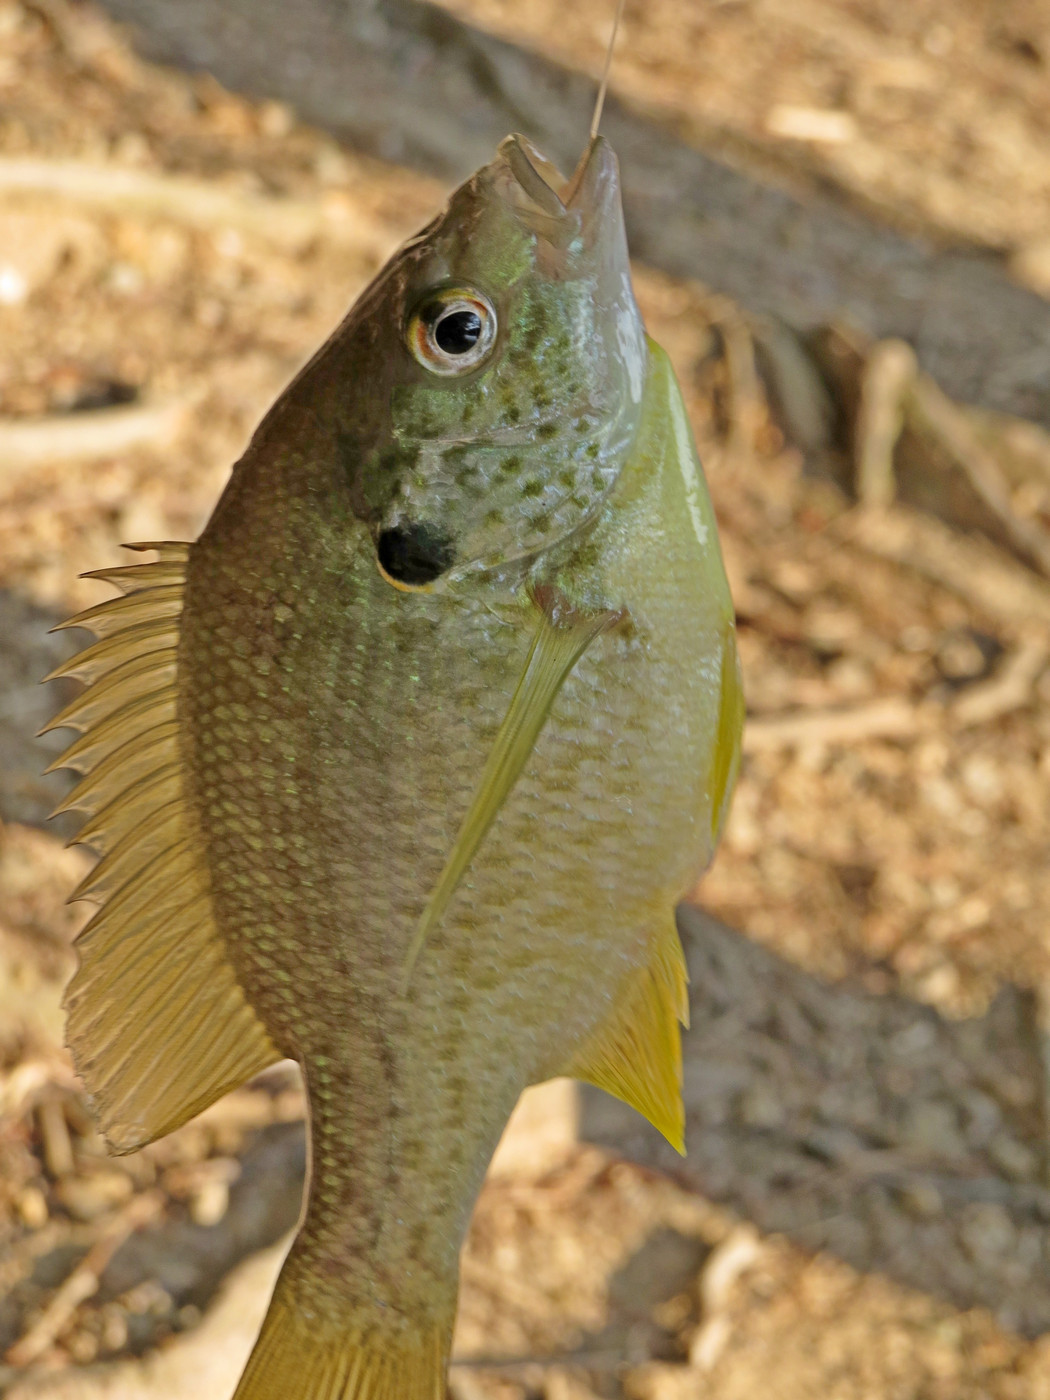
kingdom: Animalia
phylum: Chordata
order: Perciformes
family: Centrarchidae
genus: Lepomis
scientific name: Lepomis microlophus
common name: Redear sunfish
